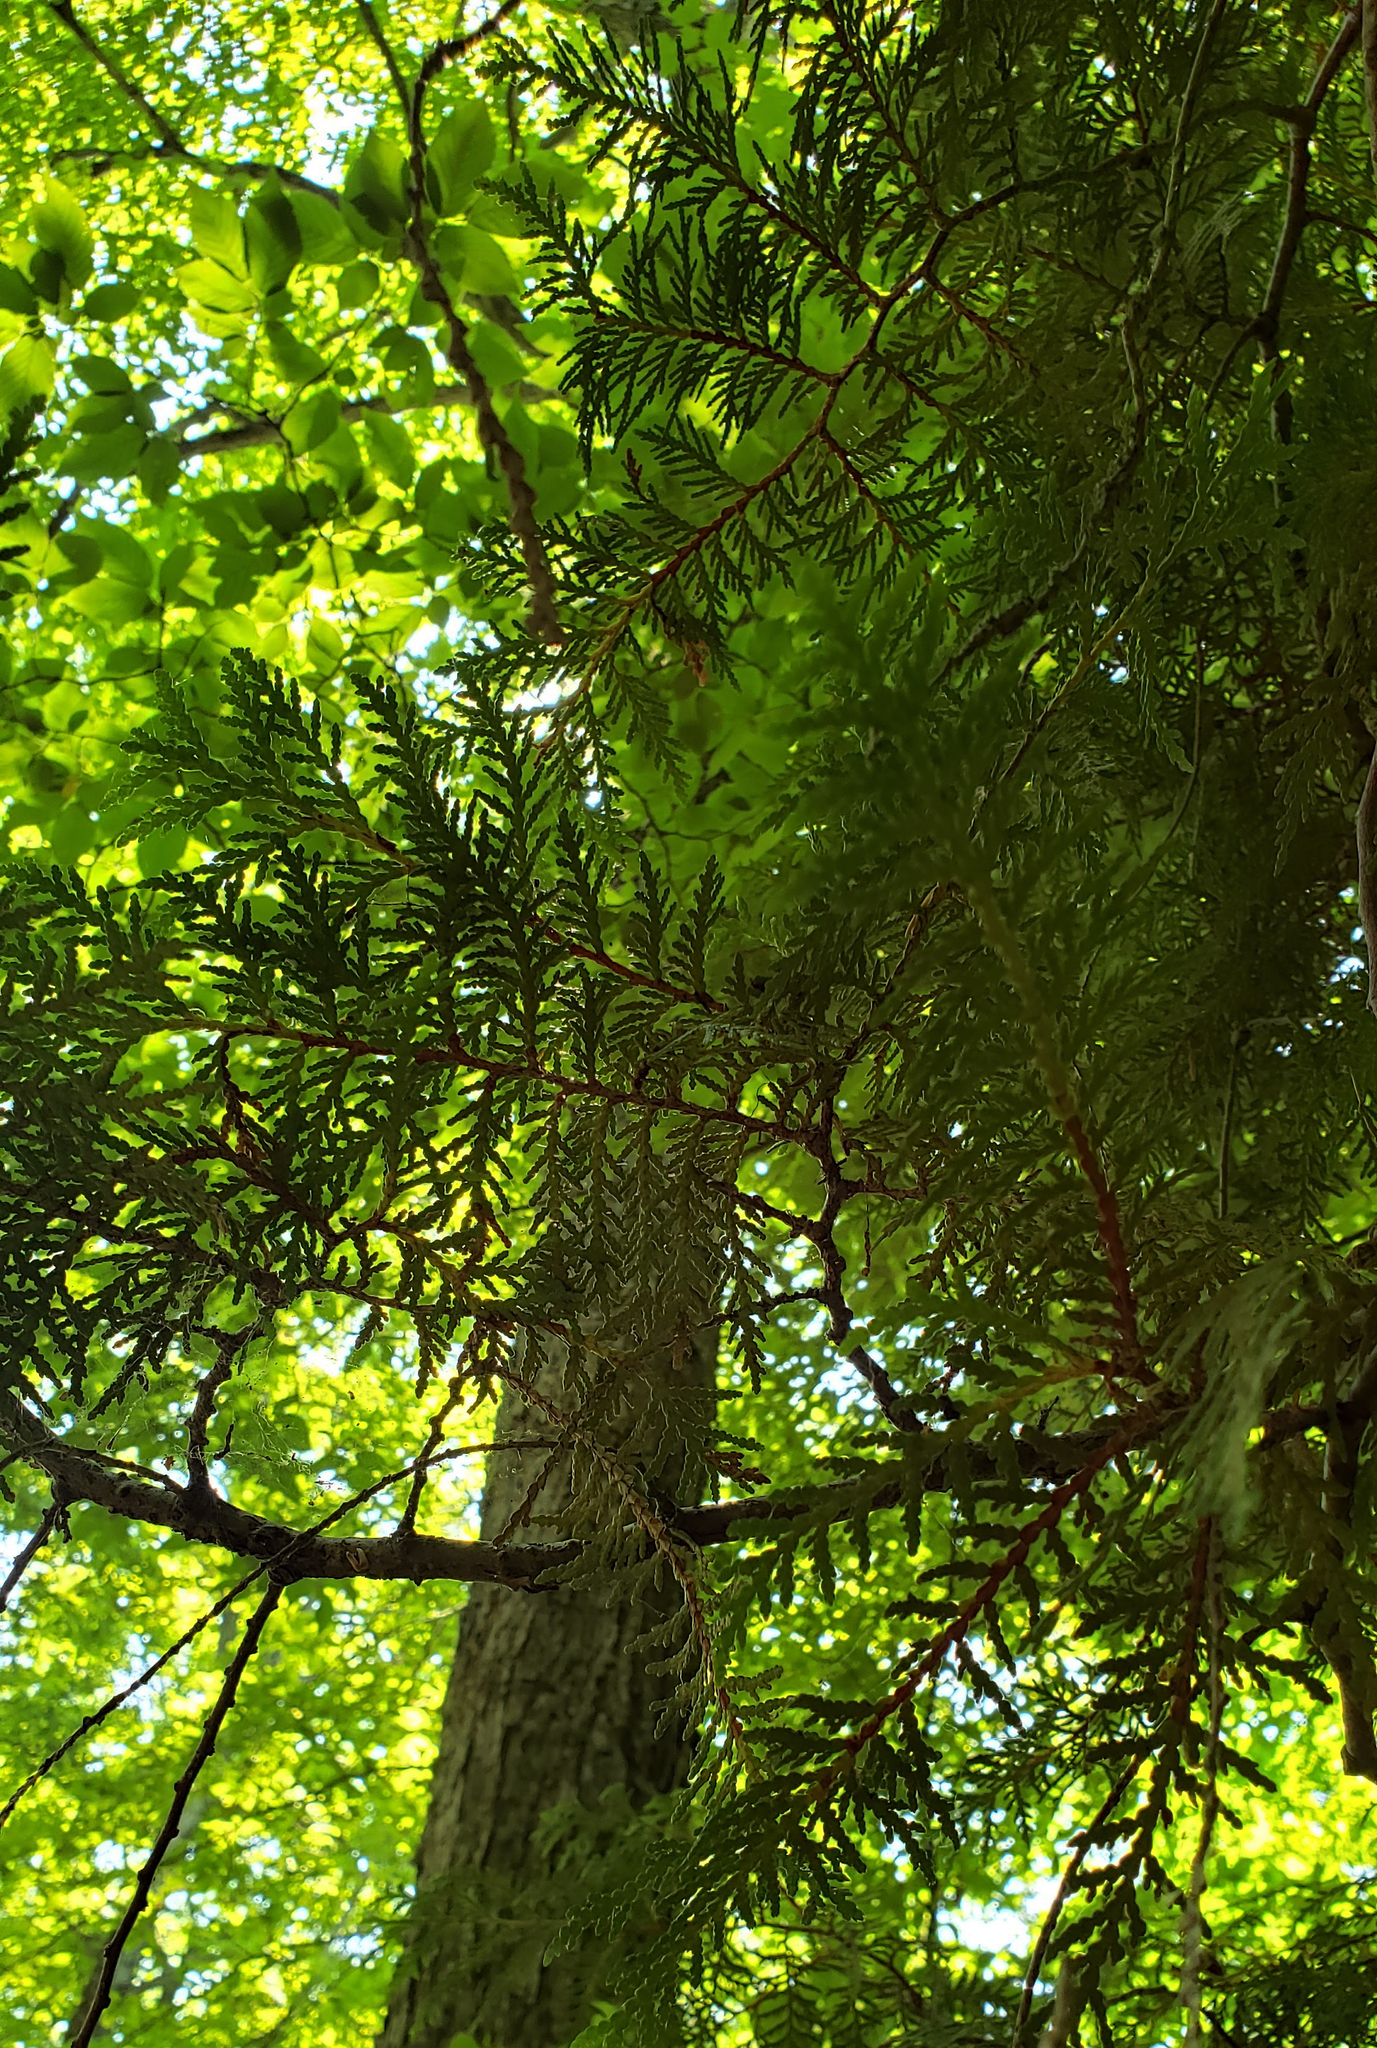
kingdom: Plantae
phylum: Tracheophyta
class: Pinopsida
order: Pinales
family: Cupressaceae
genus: Thuja
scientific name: Thuja occidentalis
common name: Northern white-cedar
